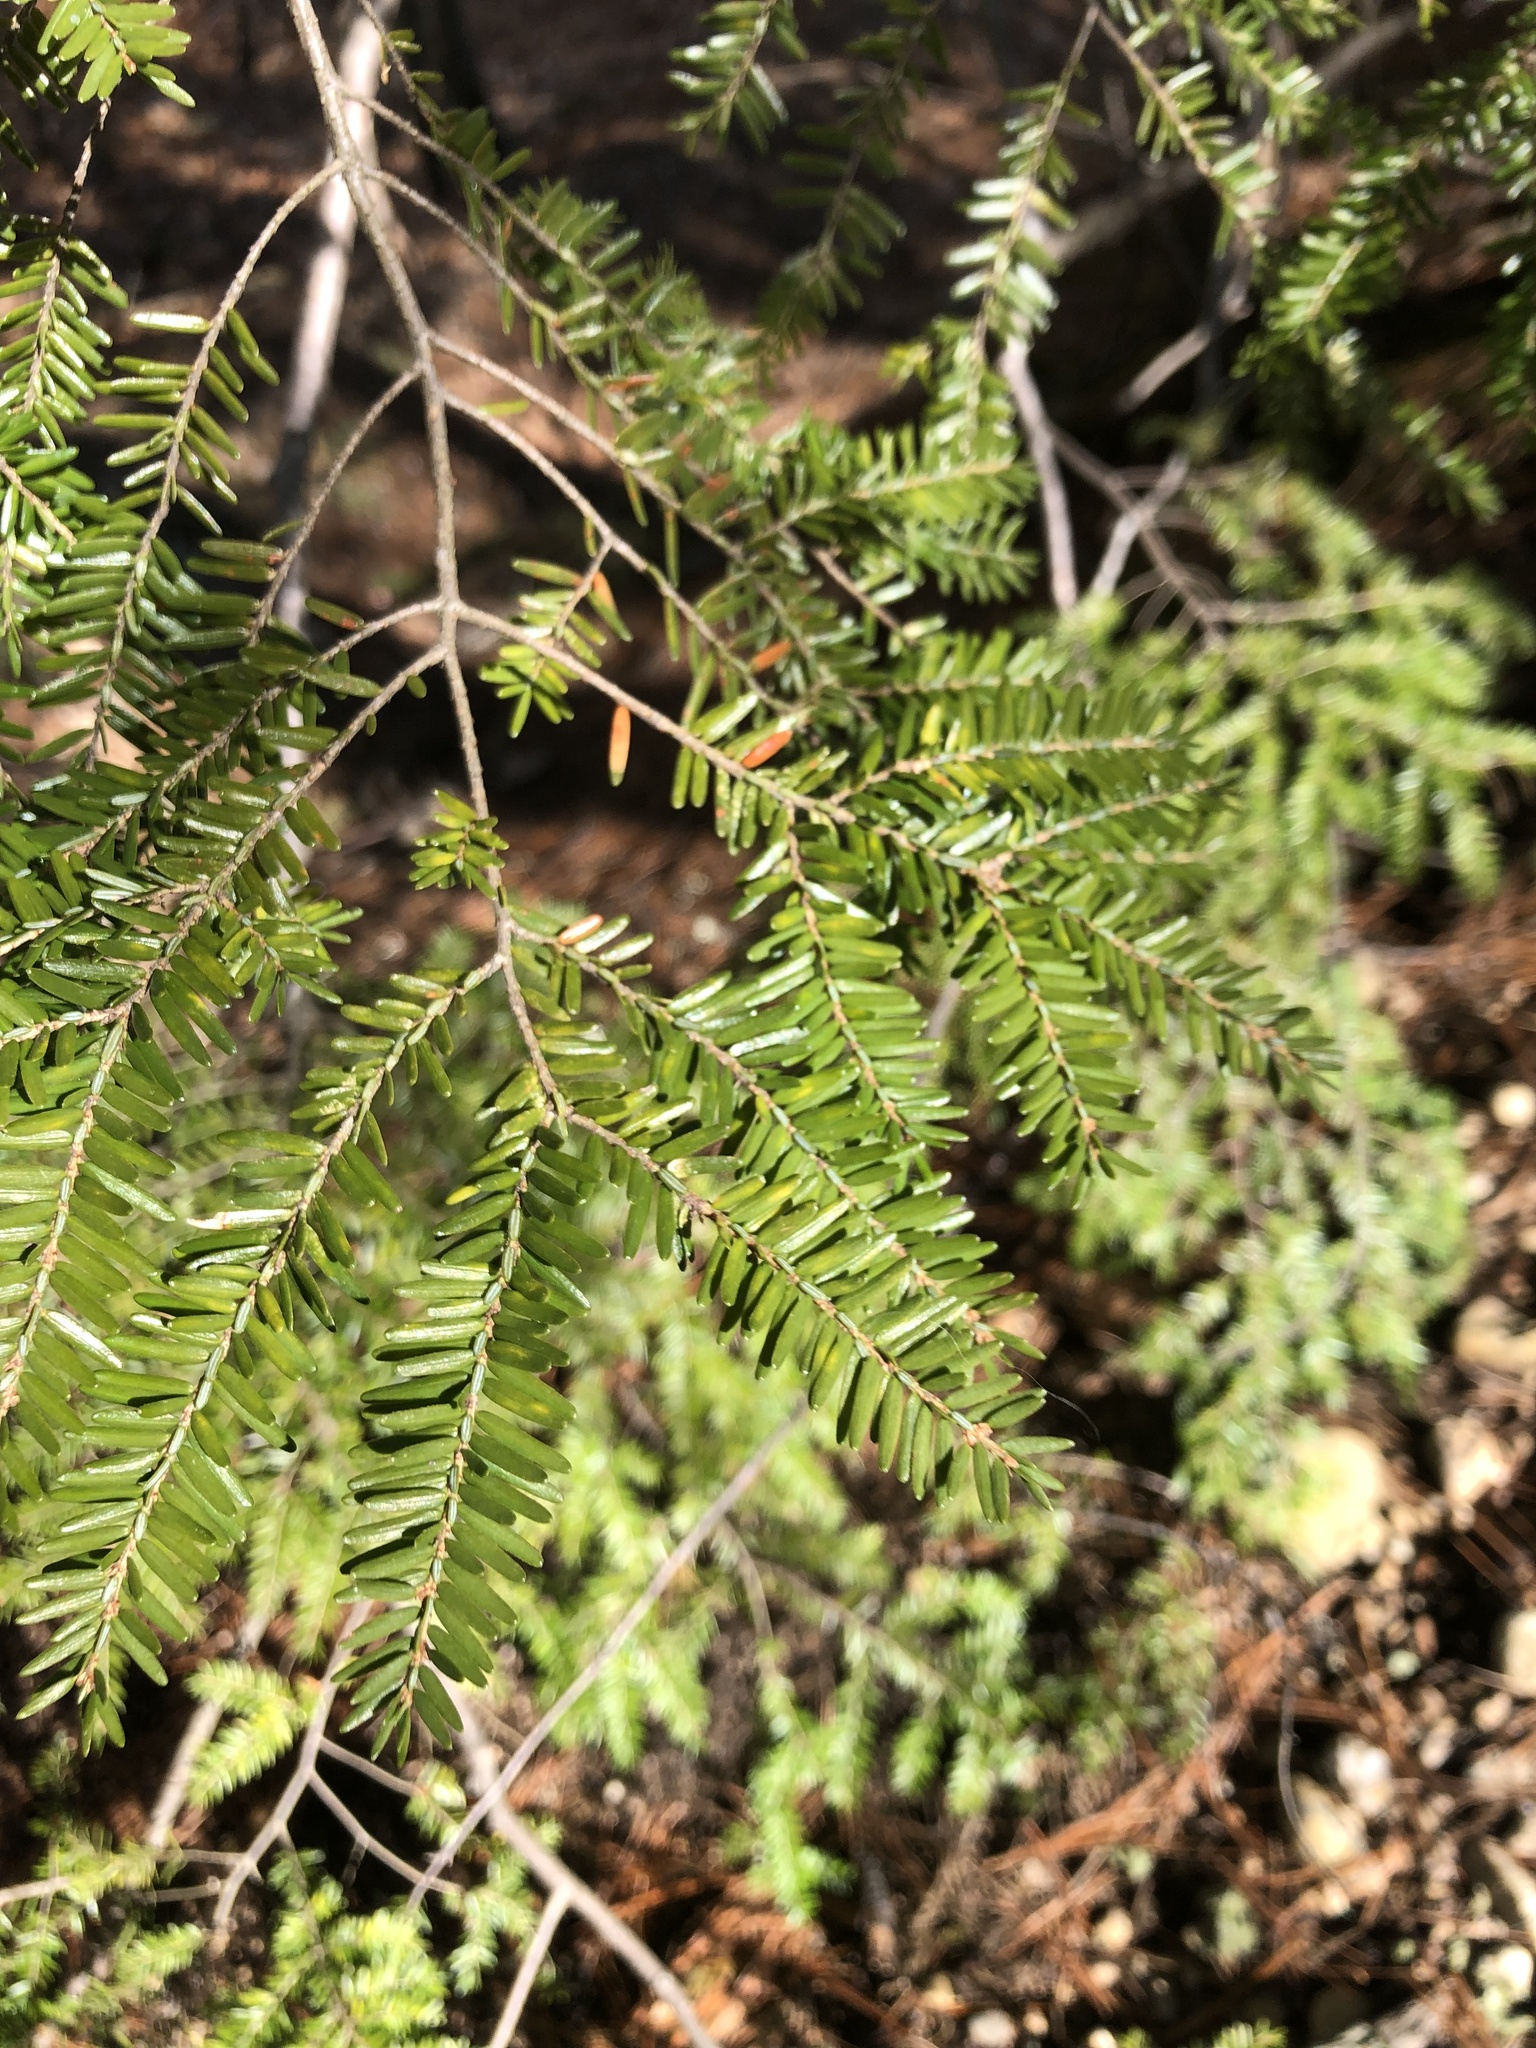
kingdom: Plantae
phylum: Tracheophyta
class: Pinopsida
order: Pinales
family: Pinaceae
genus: Tsuga
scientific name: Tsuga canadensis
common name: Eastern hemlock
